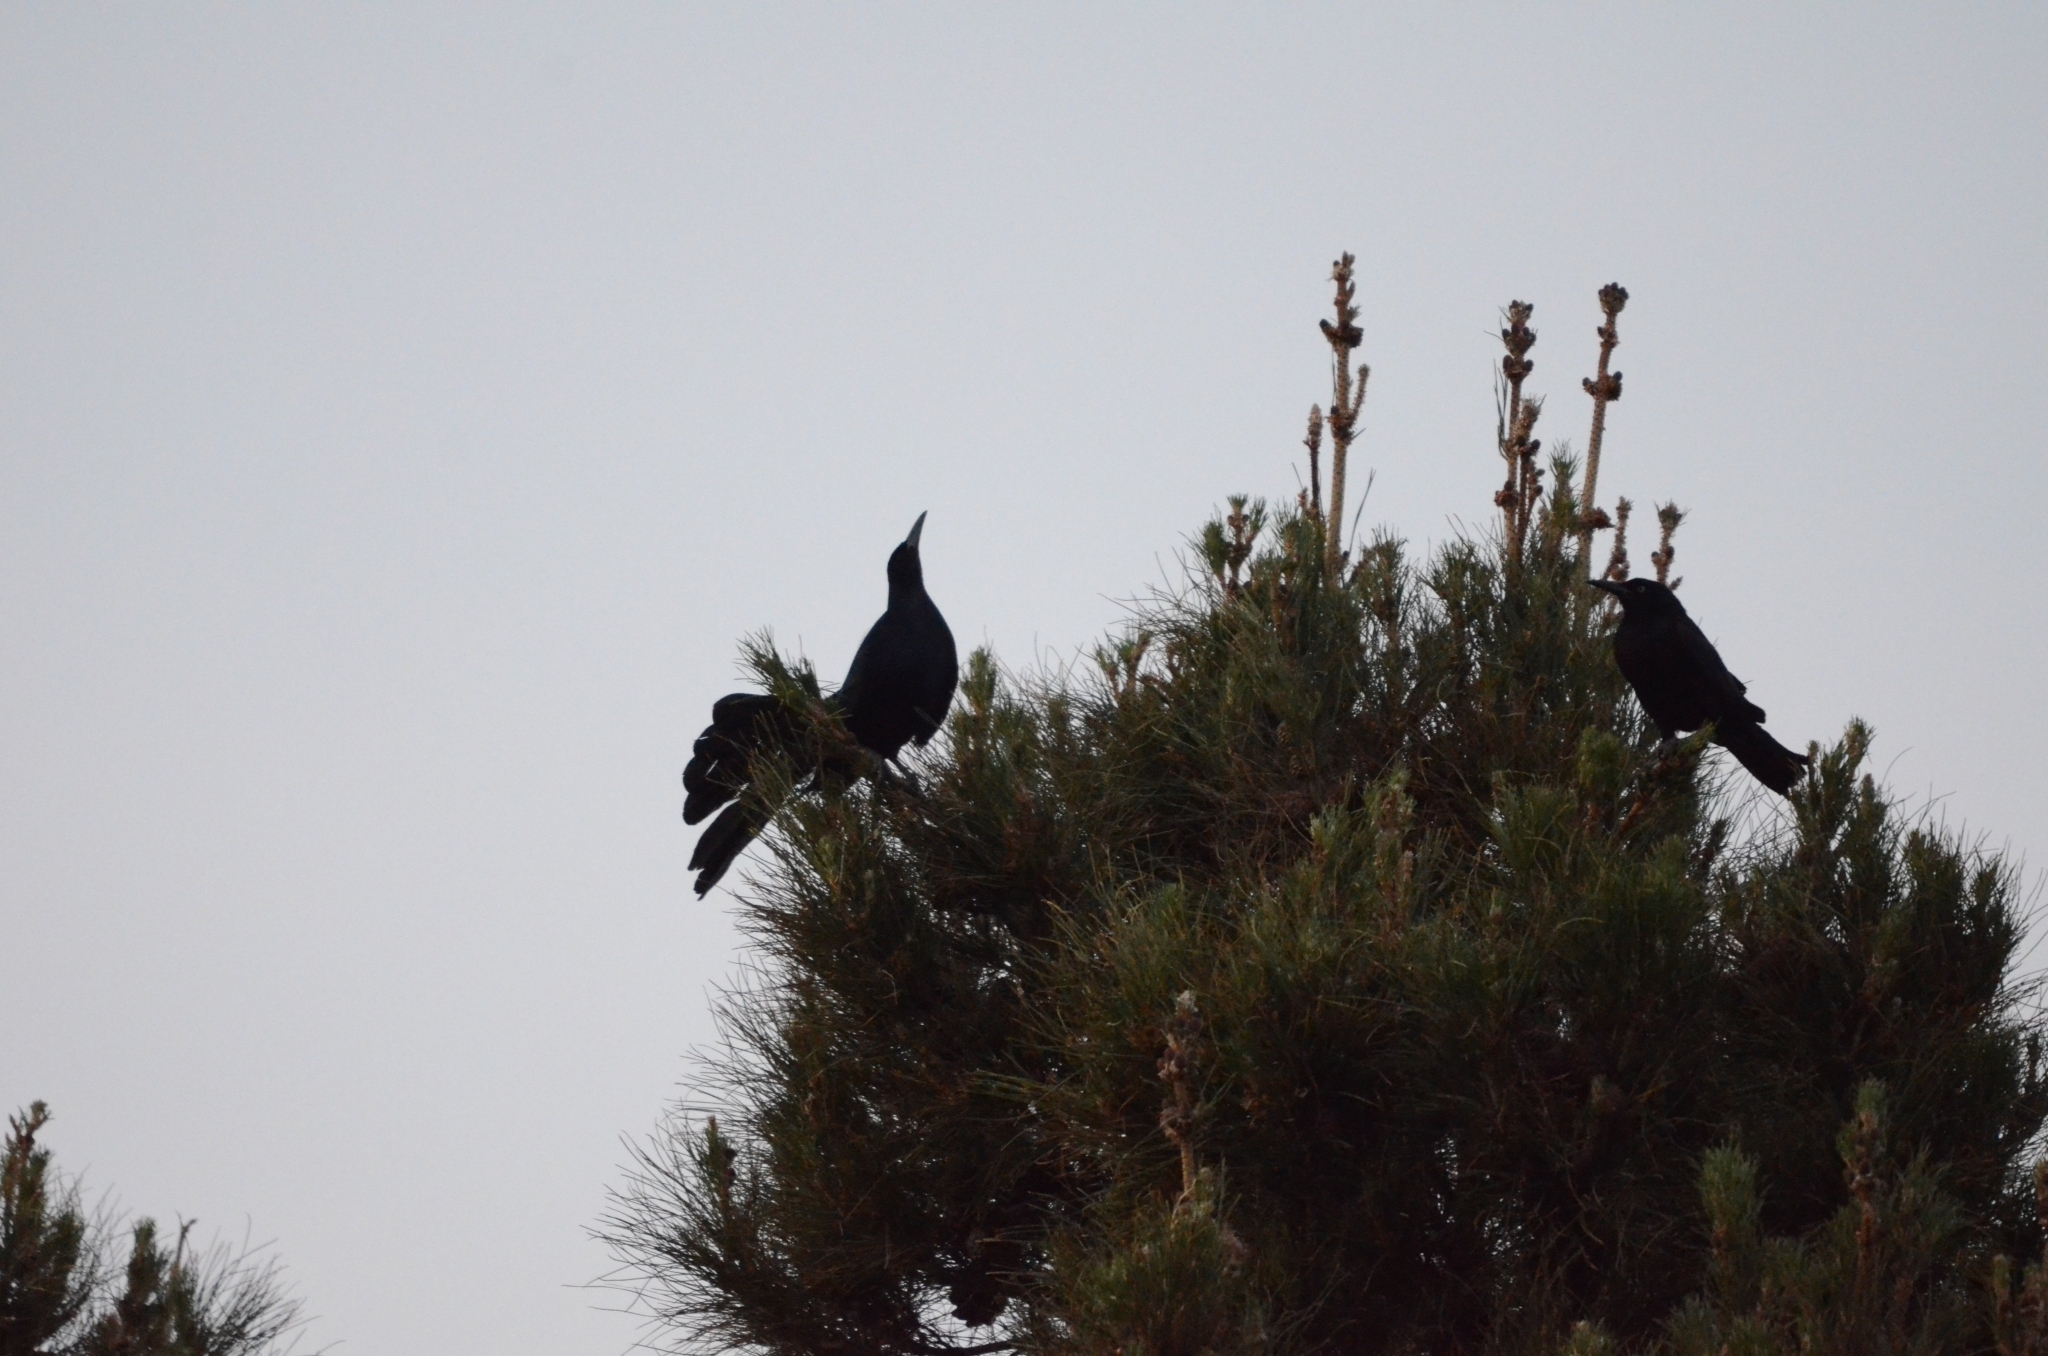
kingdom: Animalia
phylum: Chordata
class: Aves
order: Passeriformes
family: Icteridae
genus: Quiscalus
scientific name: Quiscalus mexicanus
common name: Great-tailed grackle
